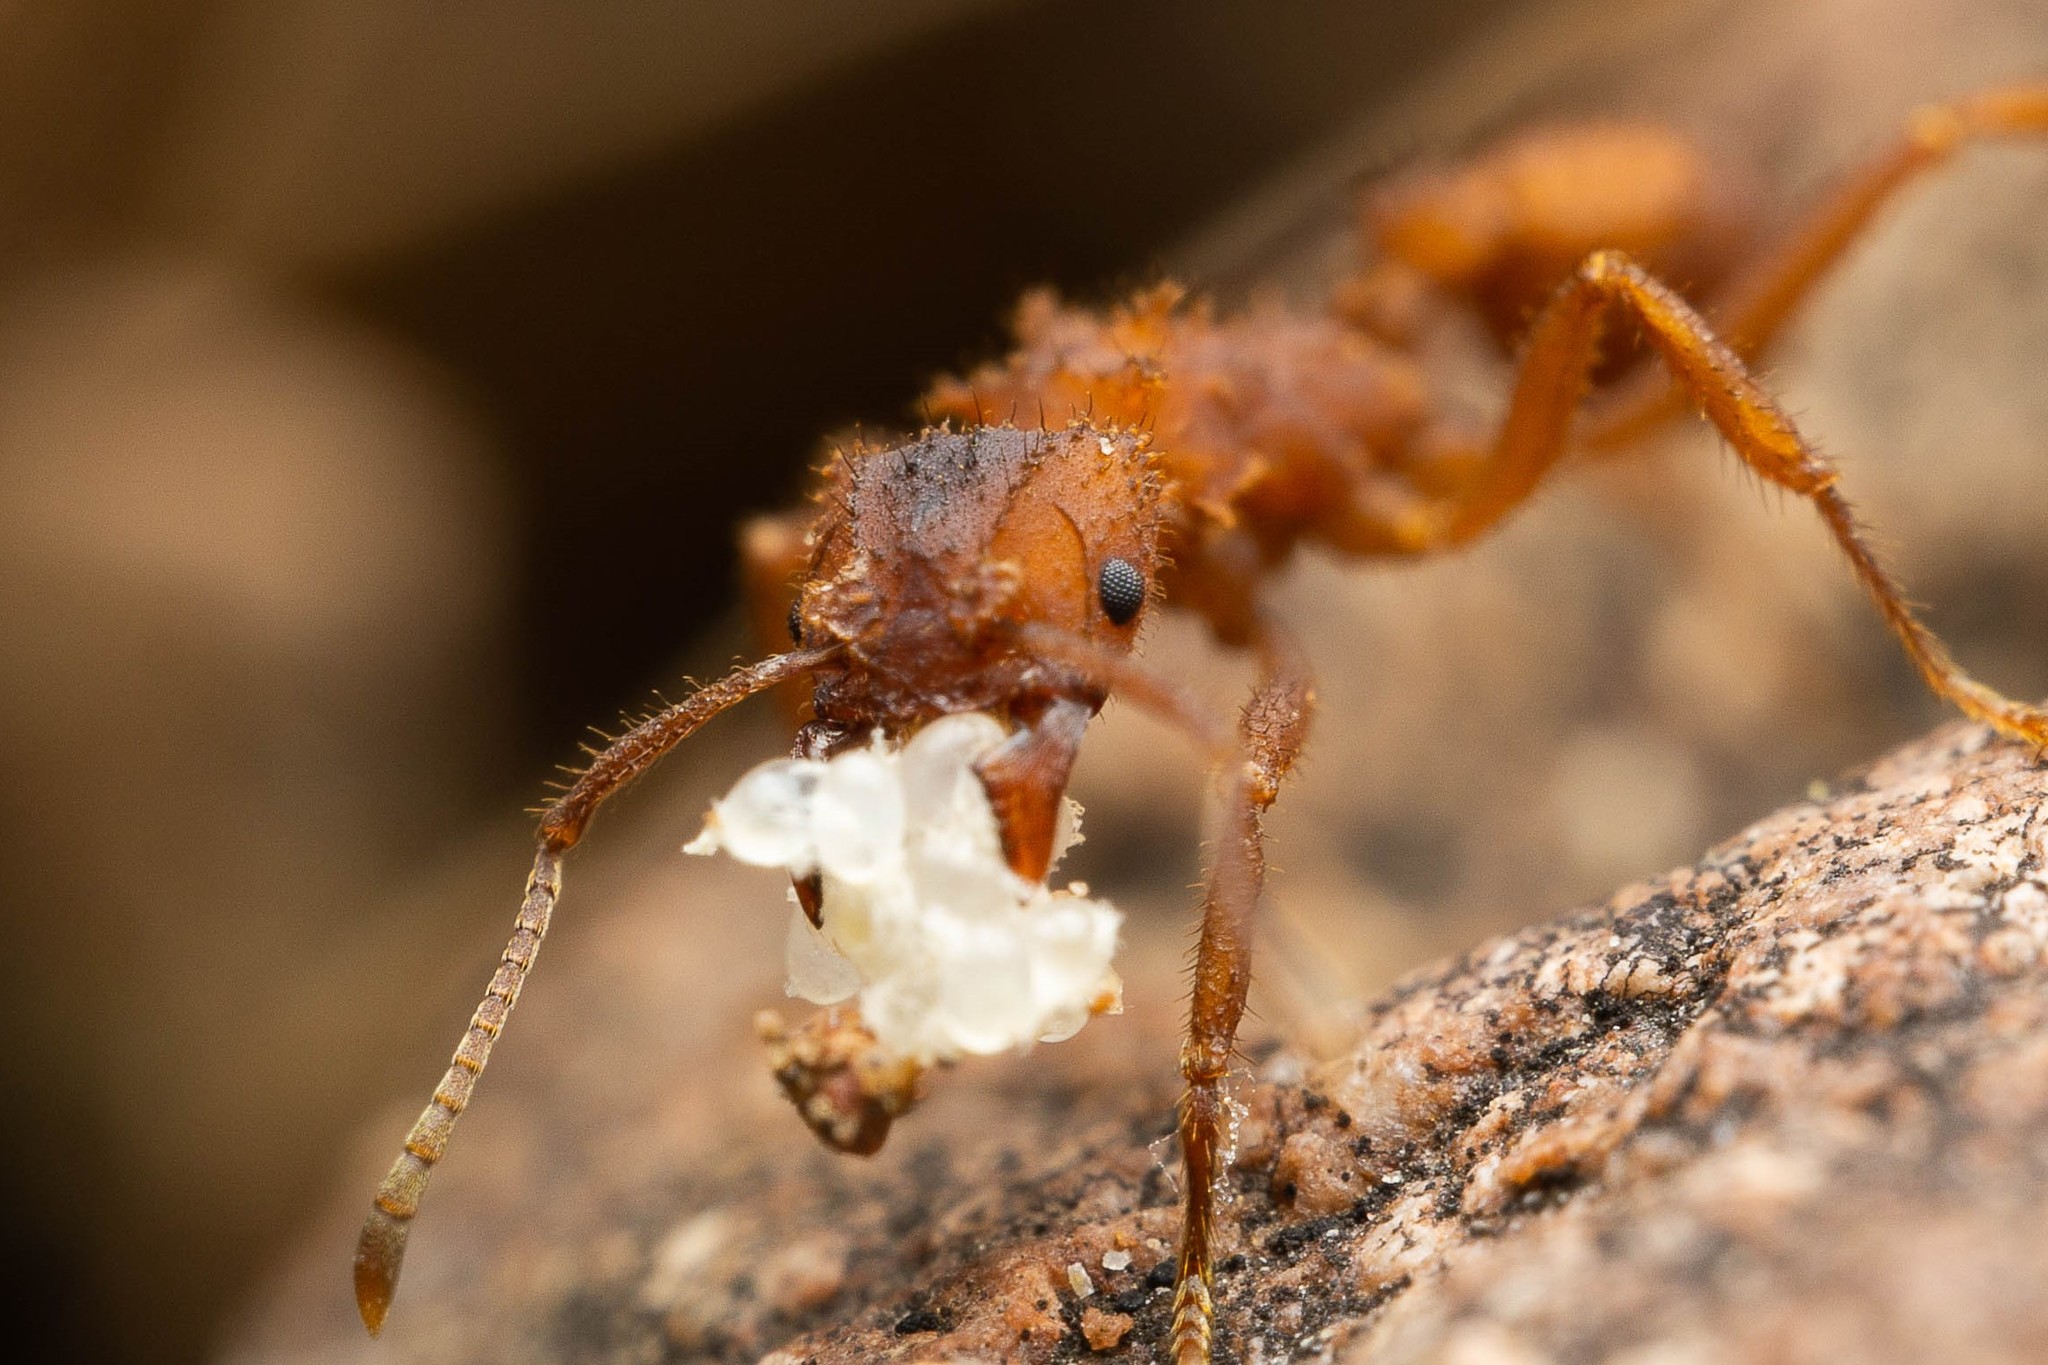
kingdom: Animalia
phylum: Arthropoda
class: Insecta
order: Hymenoptera
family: Formicidae
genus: Trachymyrmex
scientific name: Trachymyrmex arizonensis
